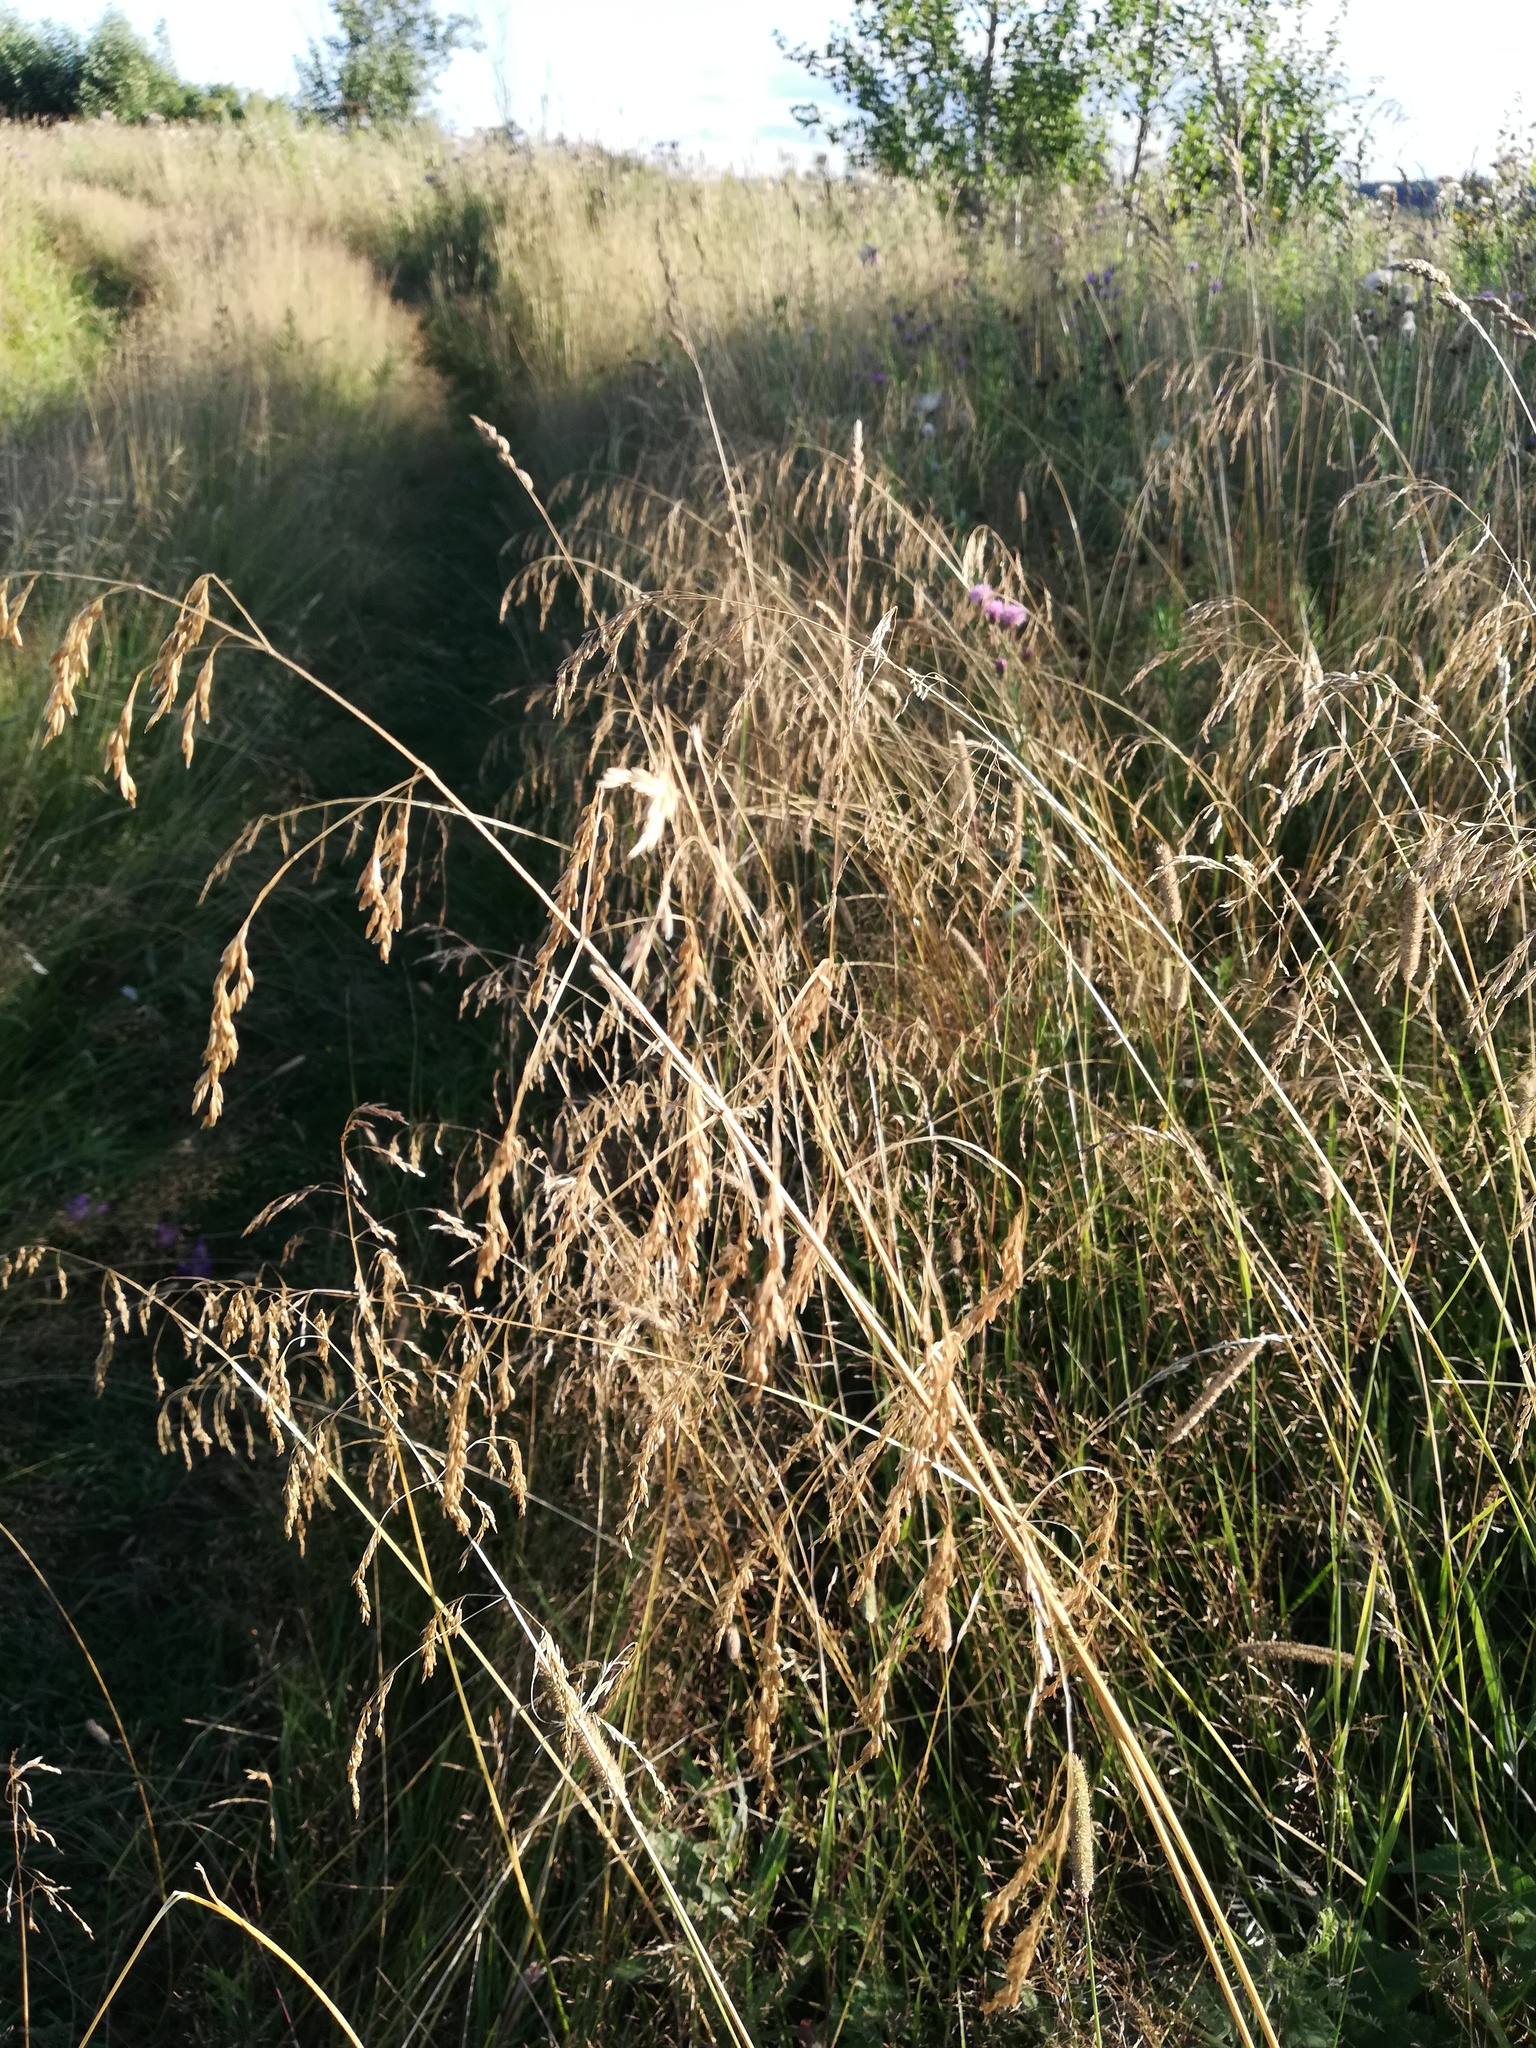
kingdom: Plantae
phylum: Tracheophyta
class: Liliopsida
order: Poales
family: Poaceae
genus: Deschampsia
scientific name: Deschampsia cespitosa
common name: Tufted hair-grass
